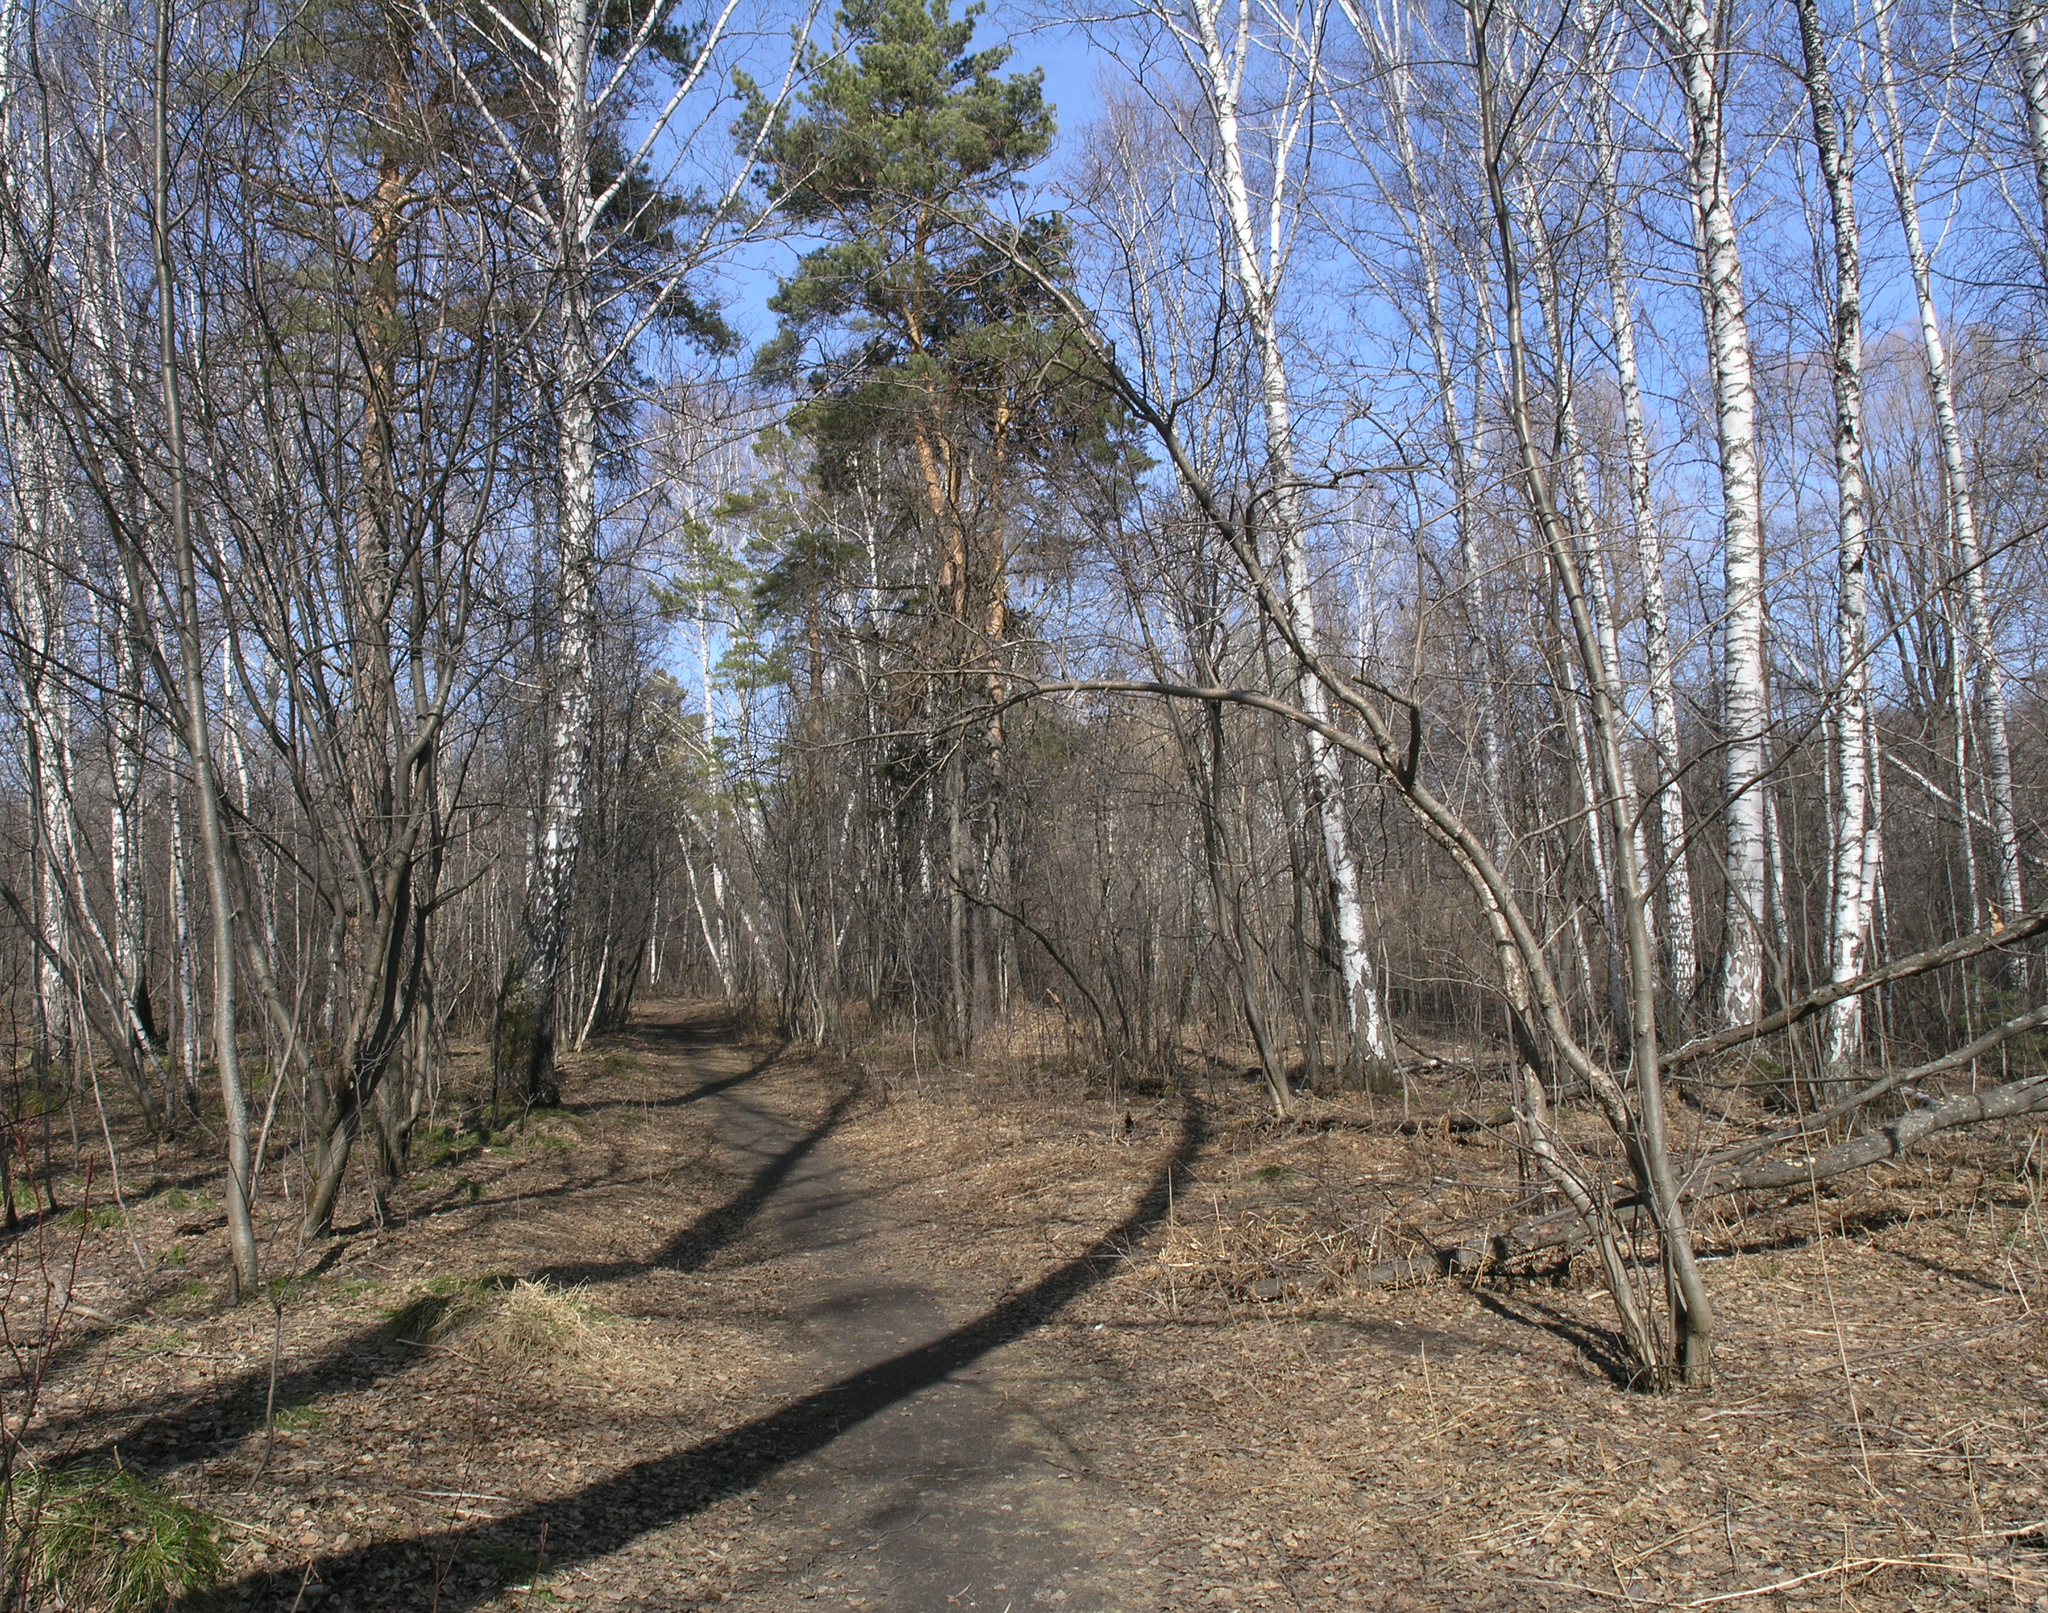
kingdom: Plantae
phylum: Tracheophyta
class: Pinopsida
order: Pinales
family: Pinaceae
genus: Pinus
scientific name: Pinus sylvestris
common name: Scots pine
